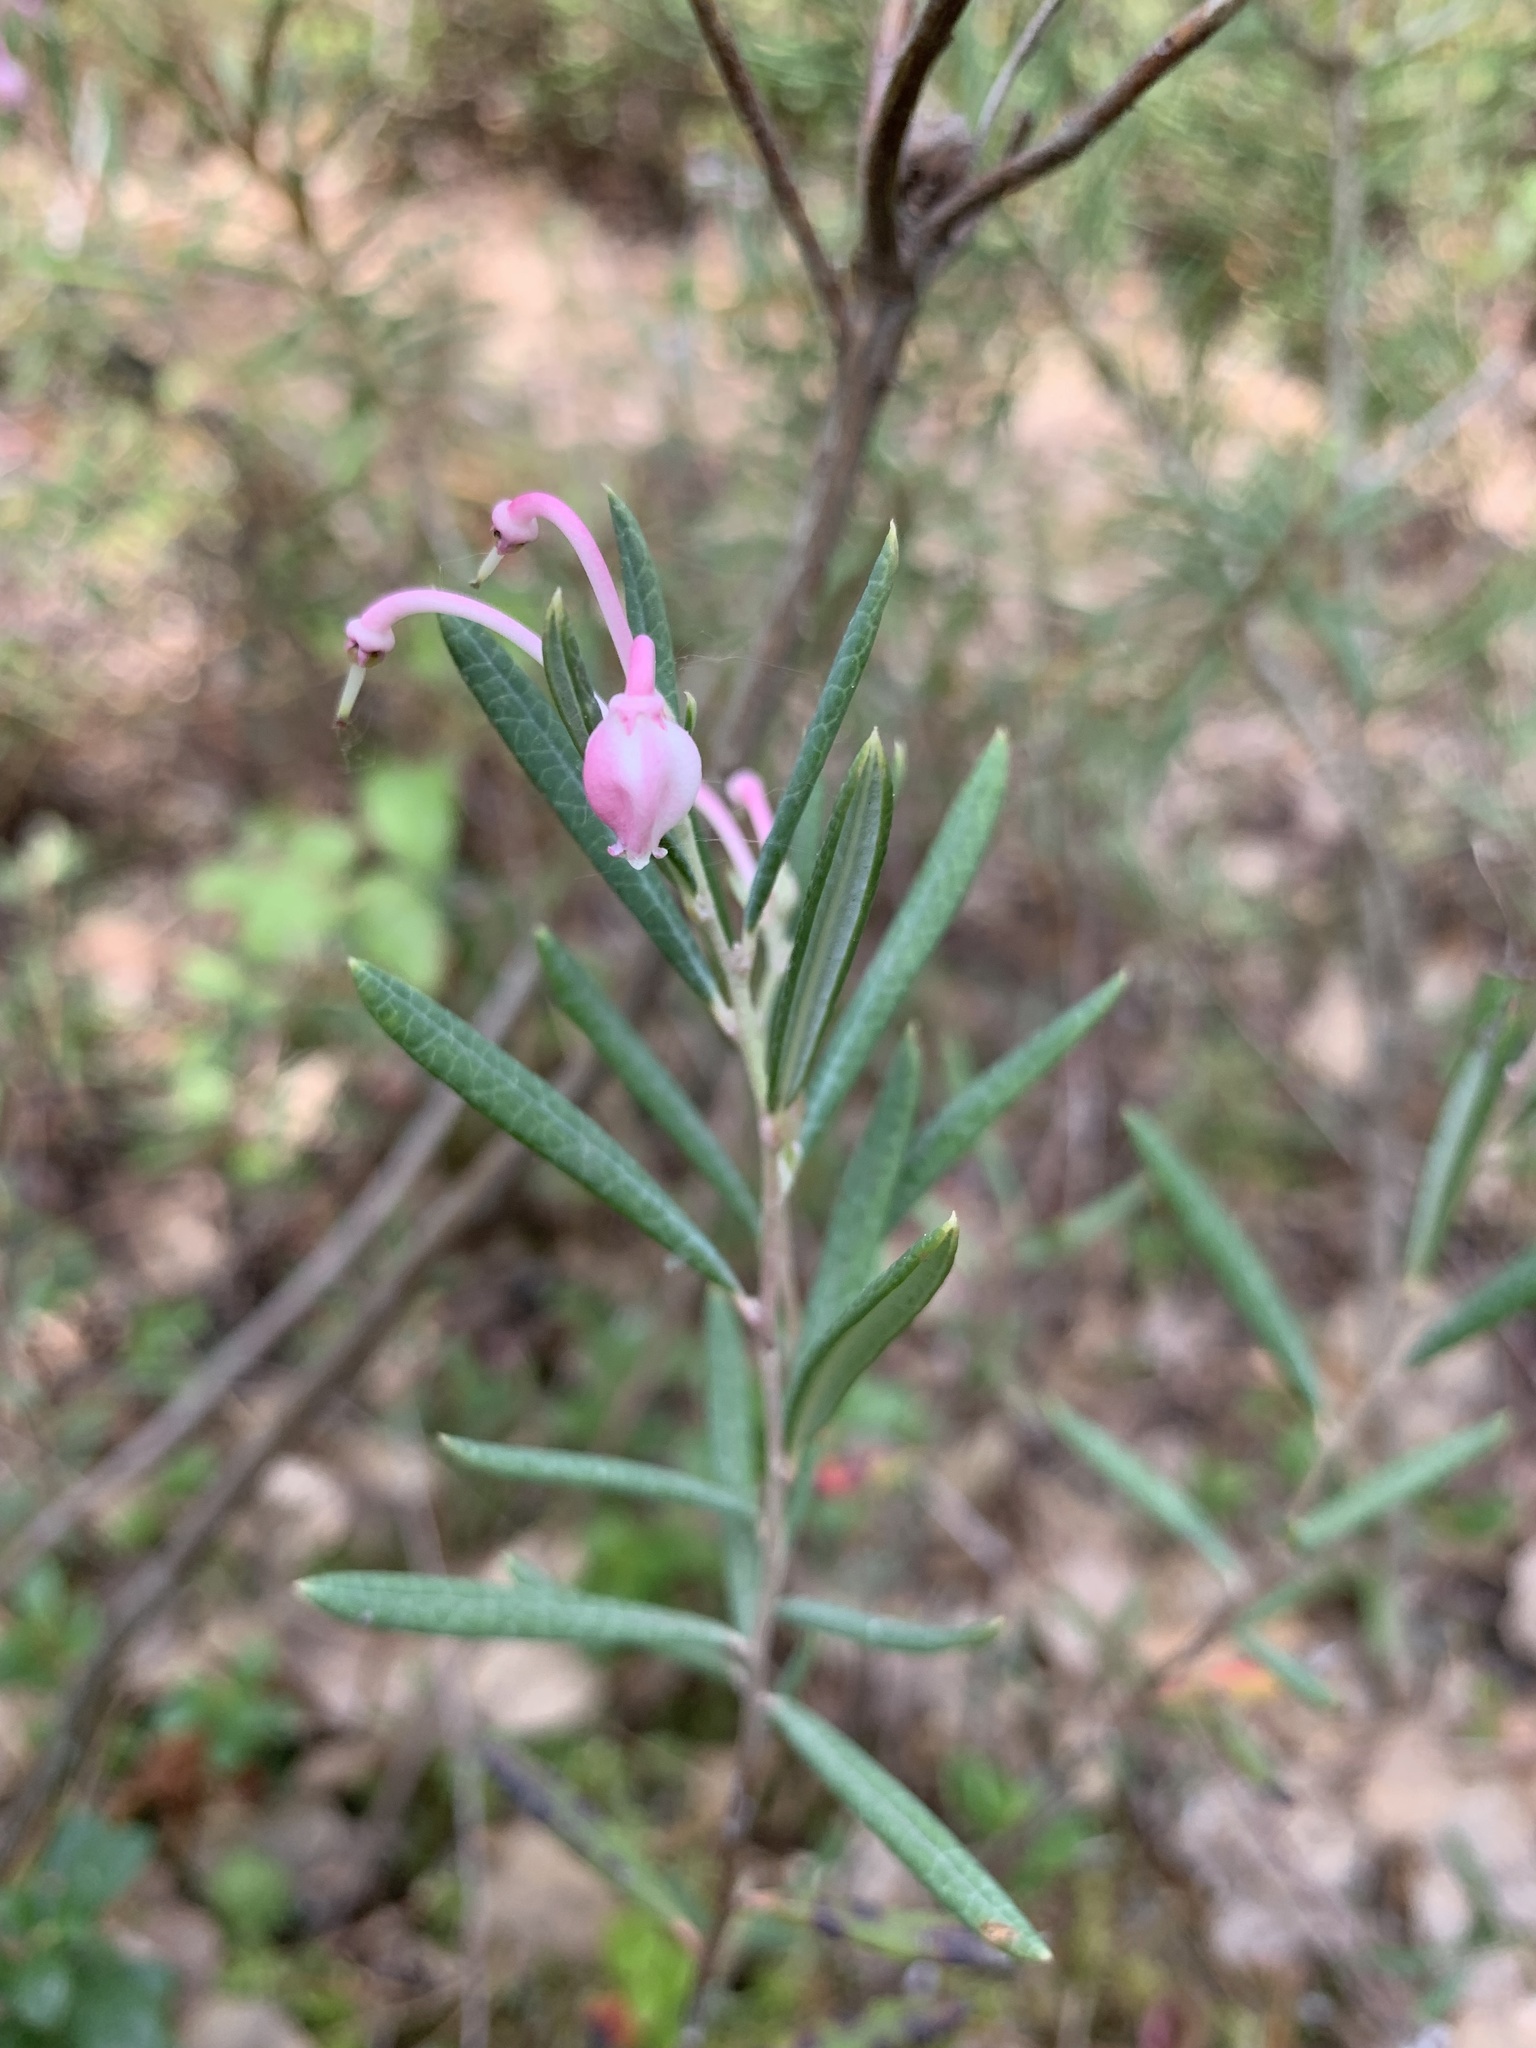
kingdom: Plantae
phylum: Tracheophyta
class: Magnoliopsida
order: Ericales
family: Ericaceae
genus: Andromeda
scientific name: Andromeda polifolia
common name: Bog-rosemary
